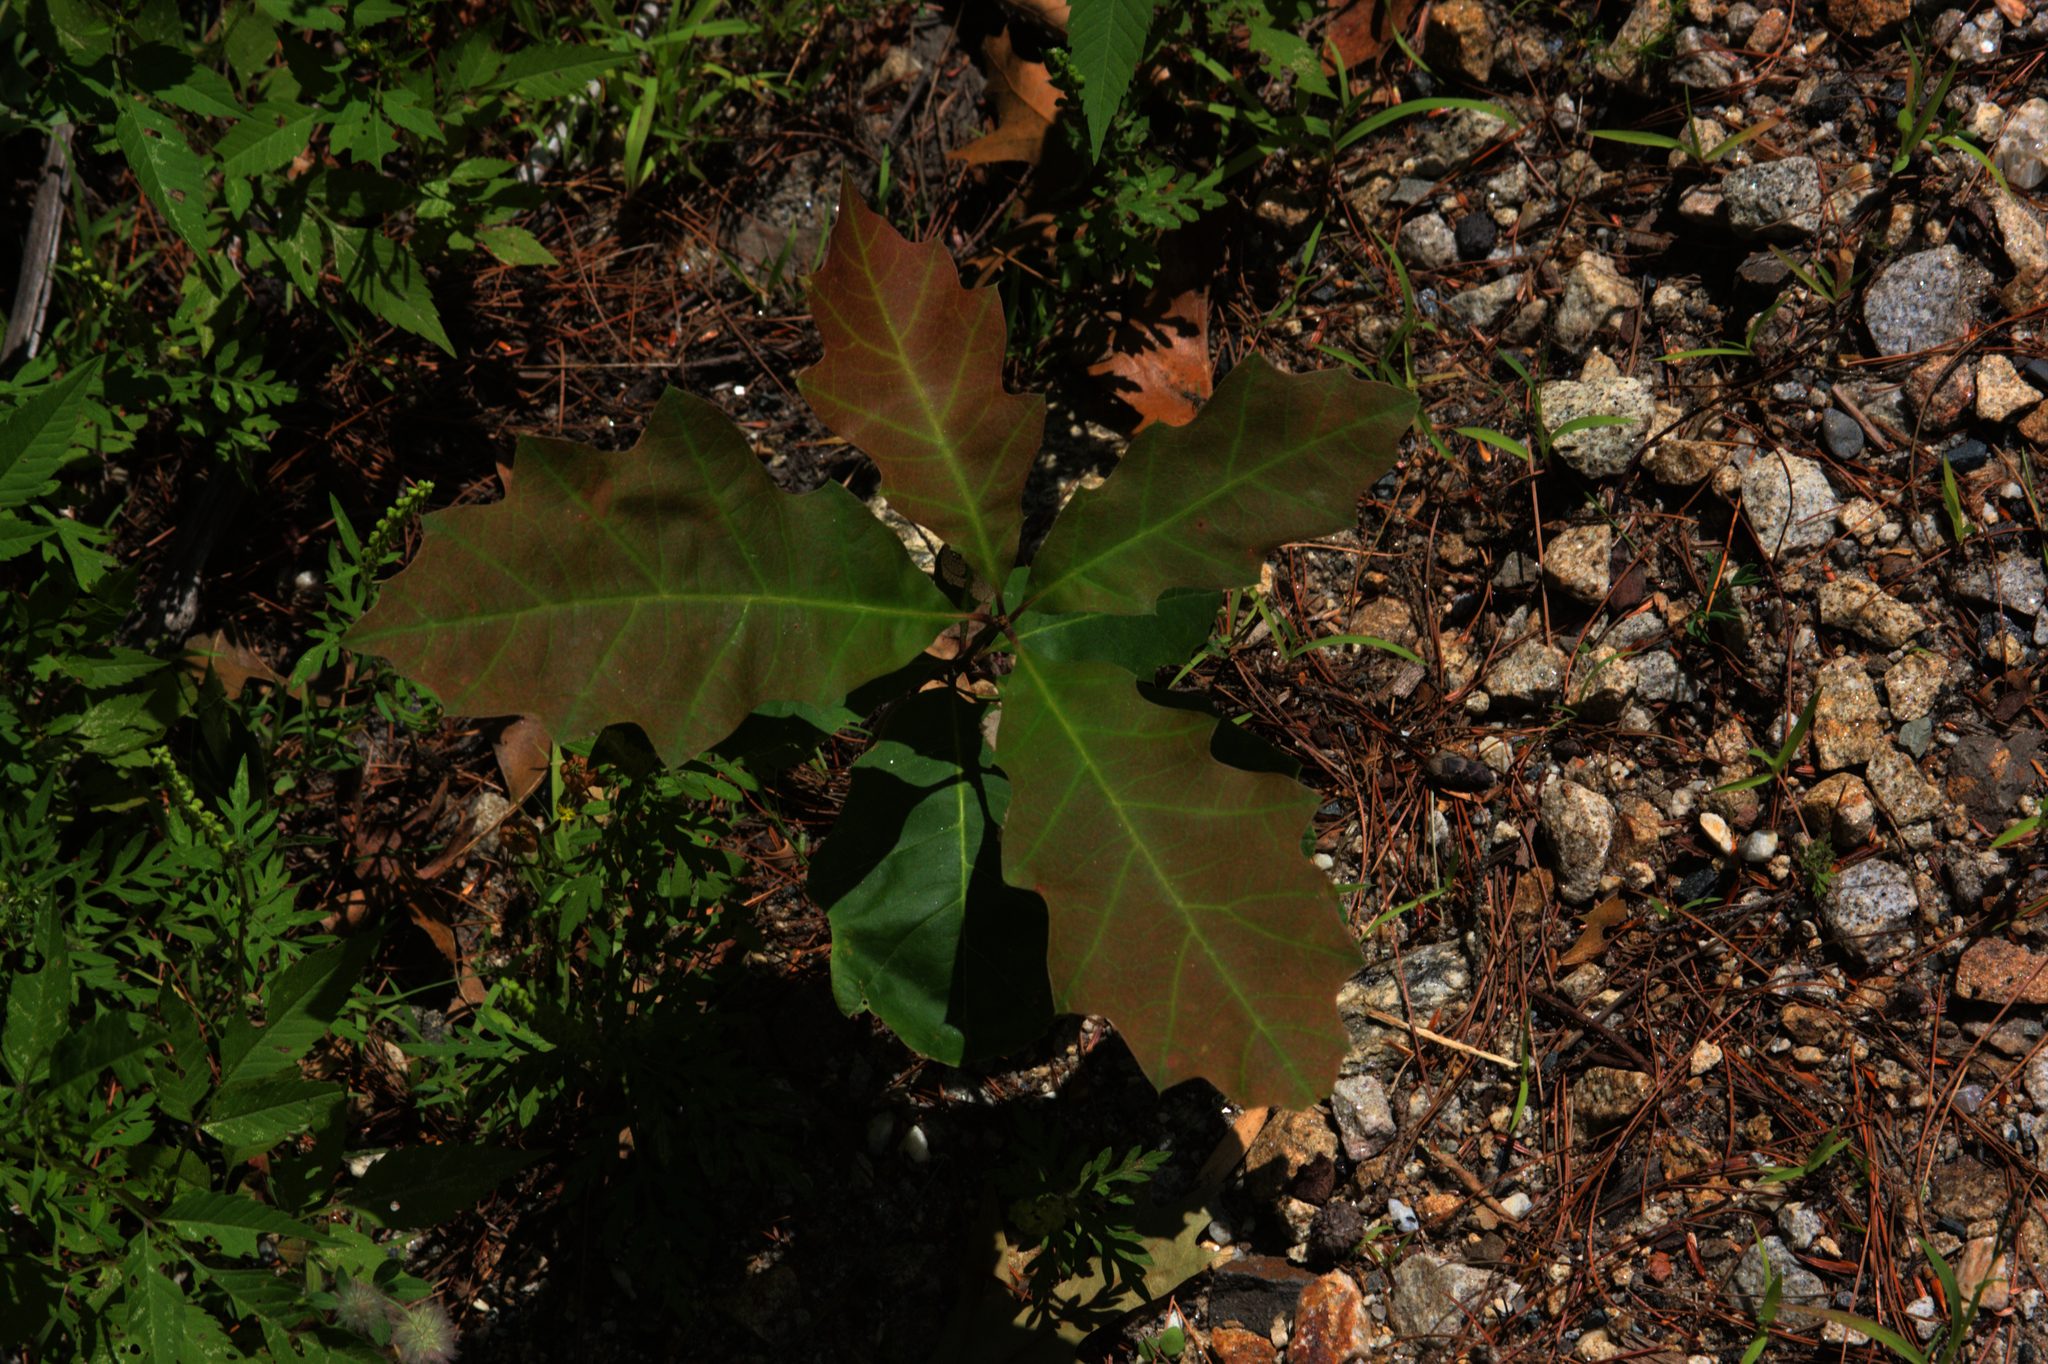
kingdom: Plantae
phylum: Tracheophyta
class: Magnoliopsida
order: Fagales
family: Fagaceae
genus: Quercus
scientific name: Quercus rubra
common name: Red oak
